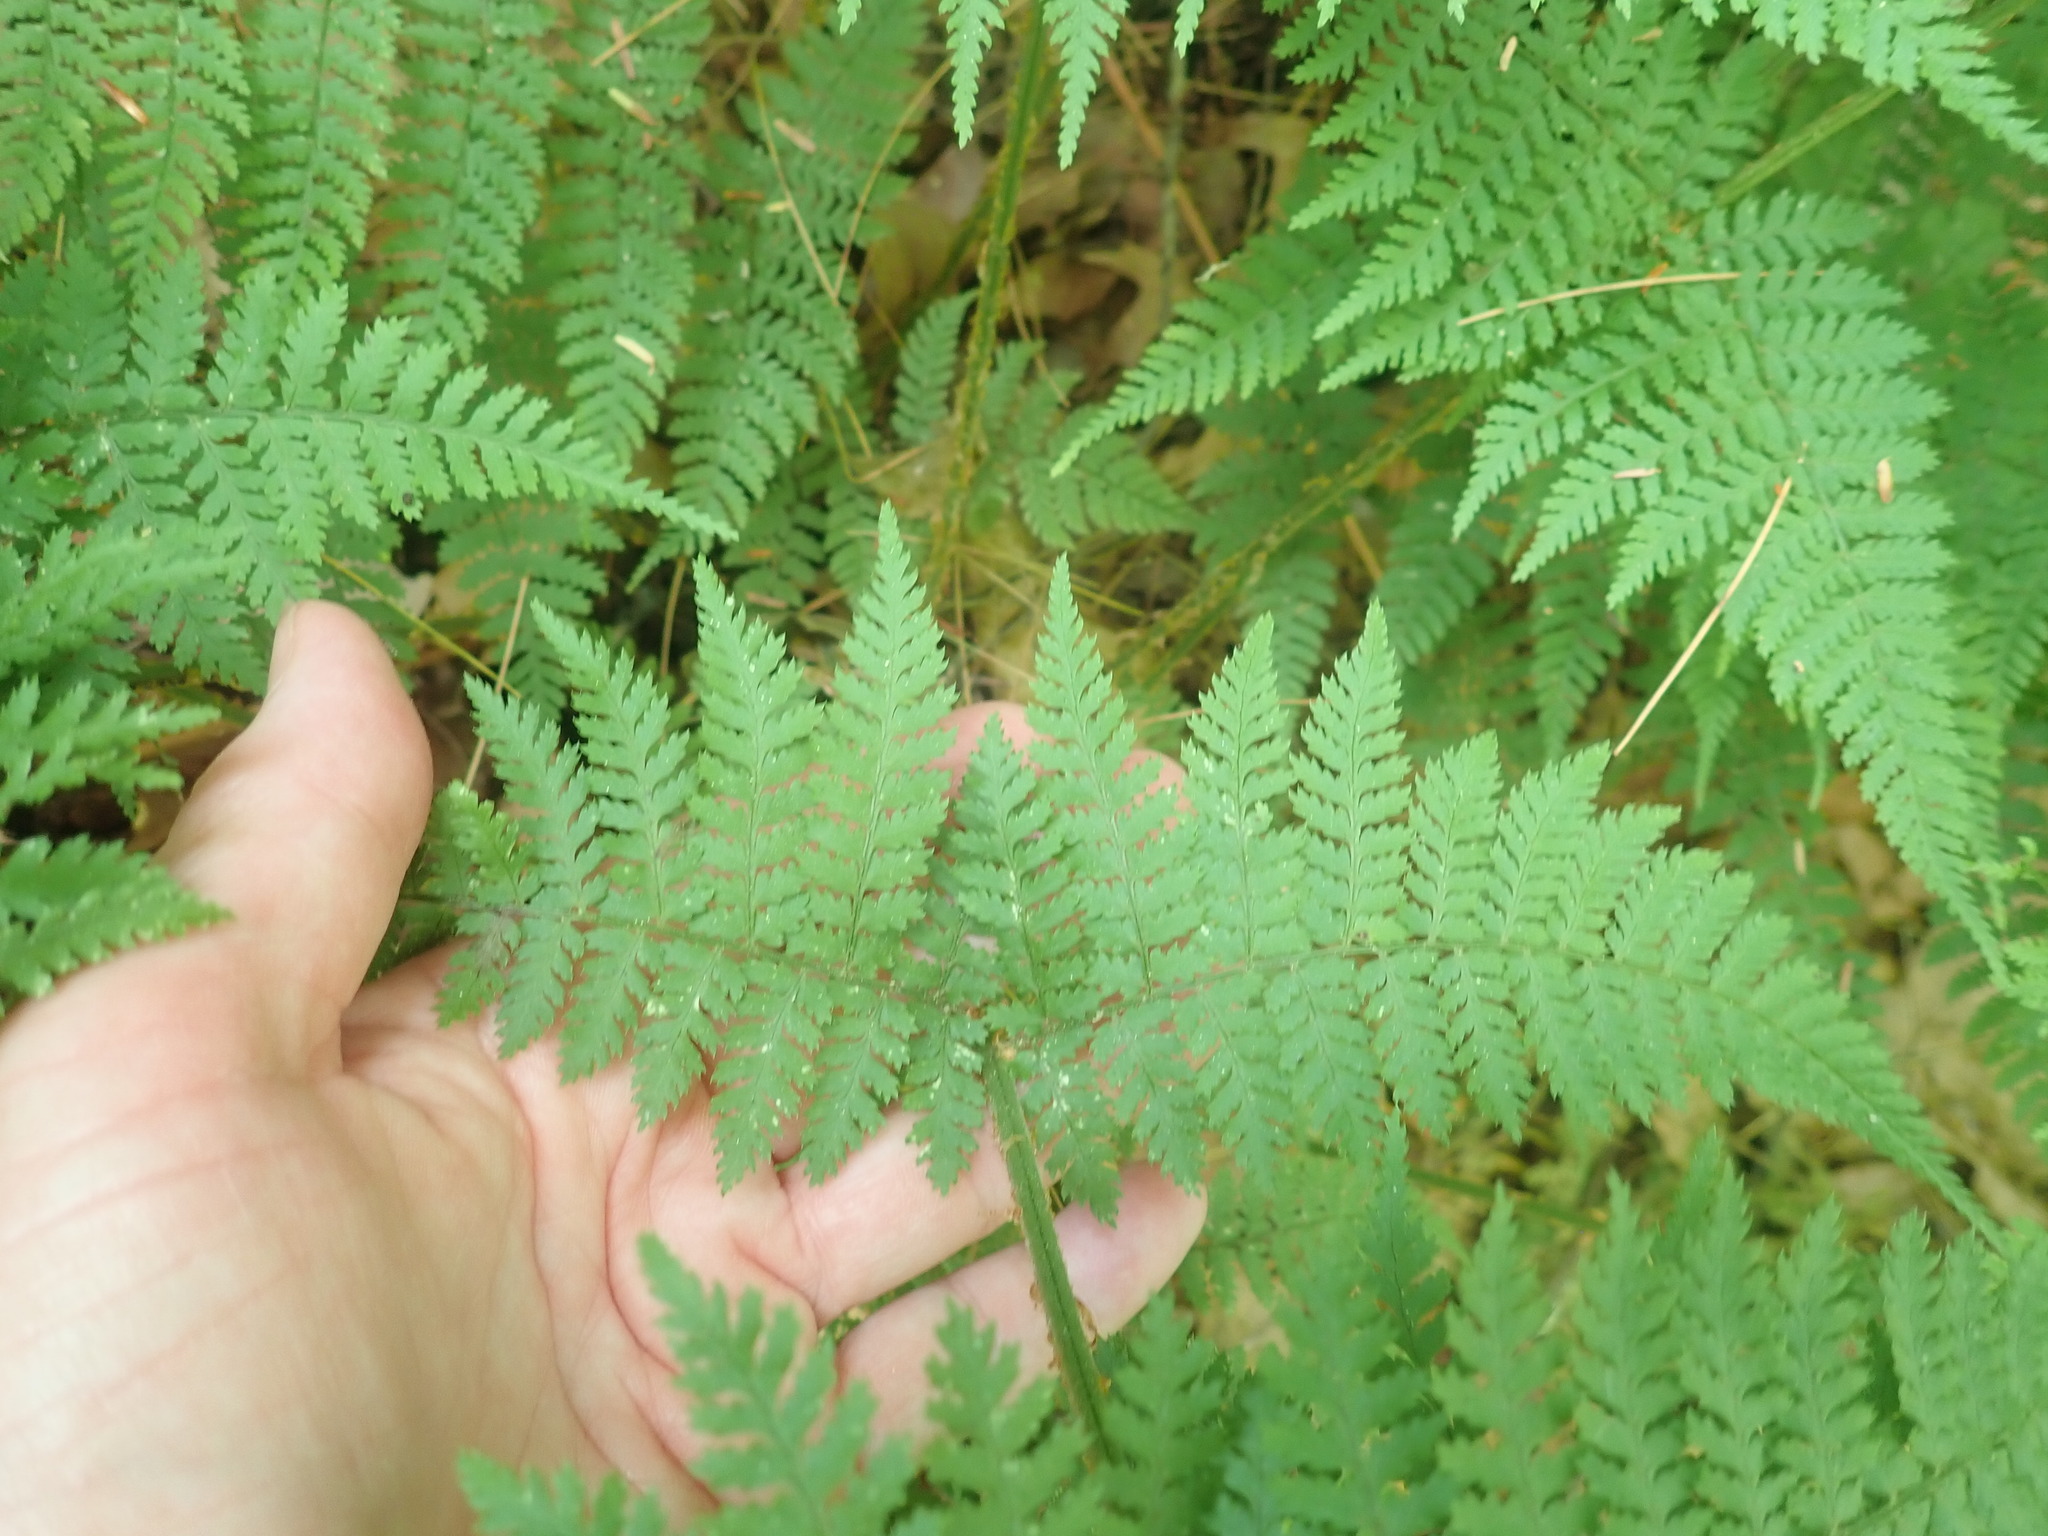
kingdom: Plantae
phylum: Tracheophyta
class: Polypodiopsida
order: Polypodiales
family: Dryopteridaceae
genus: Dryopteris
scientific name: Dryopteris intermedia
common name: Evergreen wood fern
